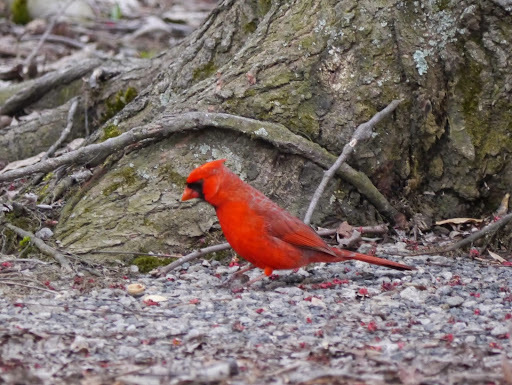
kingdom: Animalia
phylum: Chordata
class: Aves
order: Passeriformes
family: Cardinalidae
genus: Cardinalis
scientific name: Cardinalis cardinalis
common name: Northern cardinal
